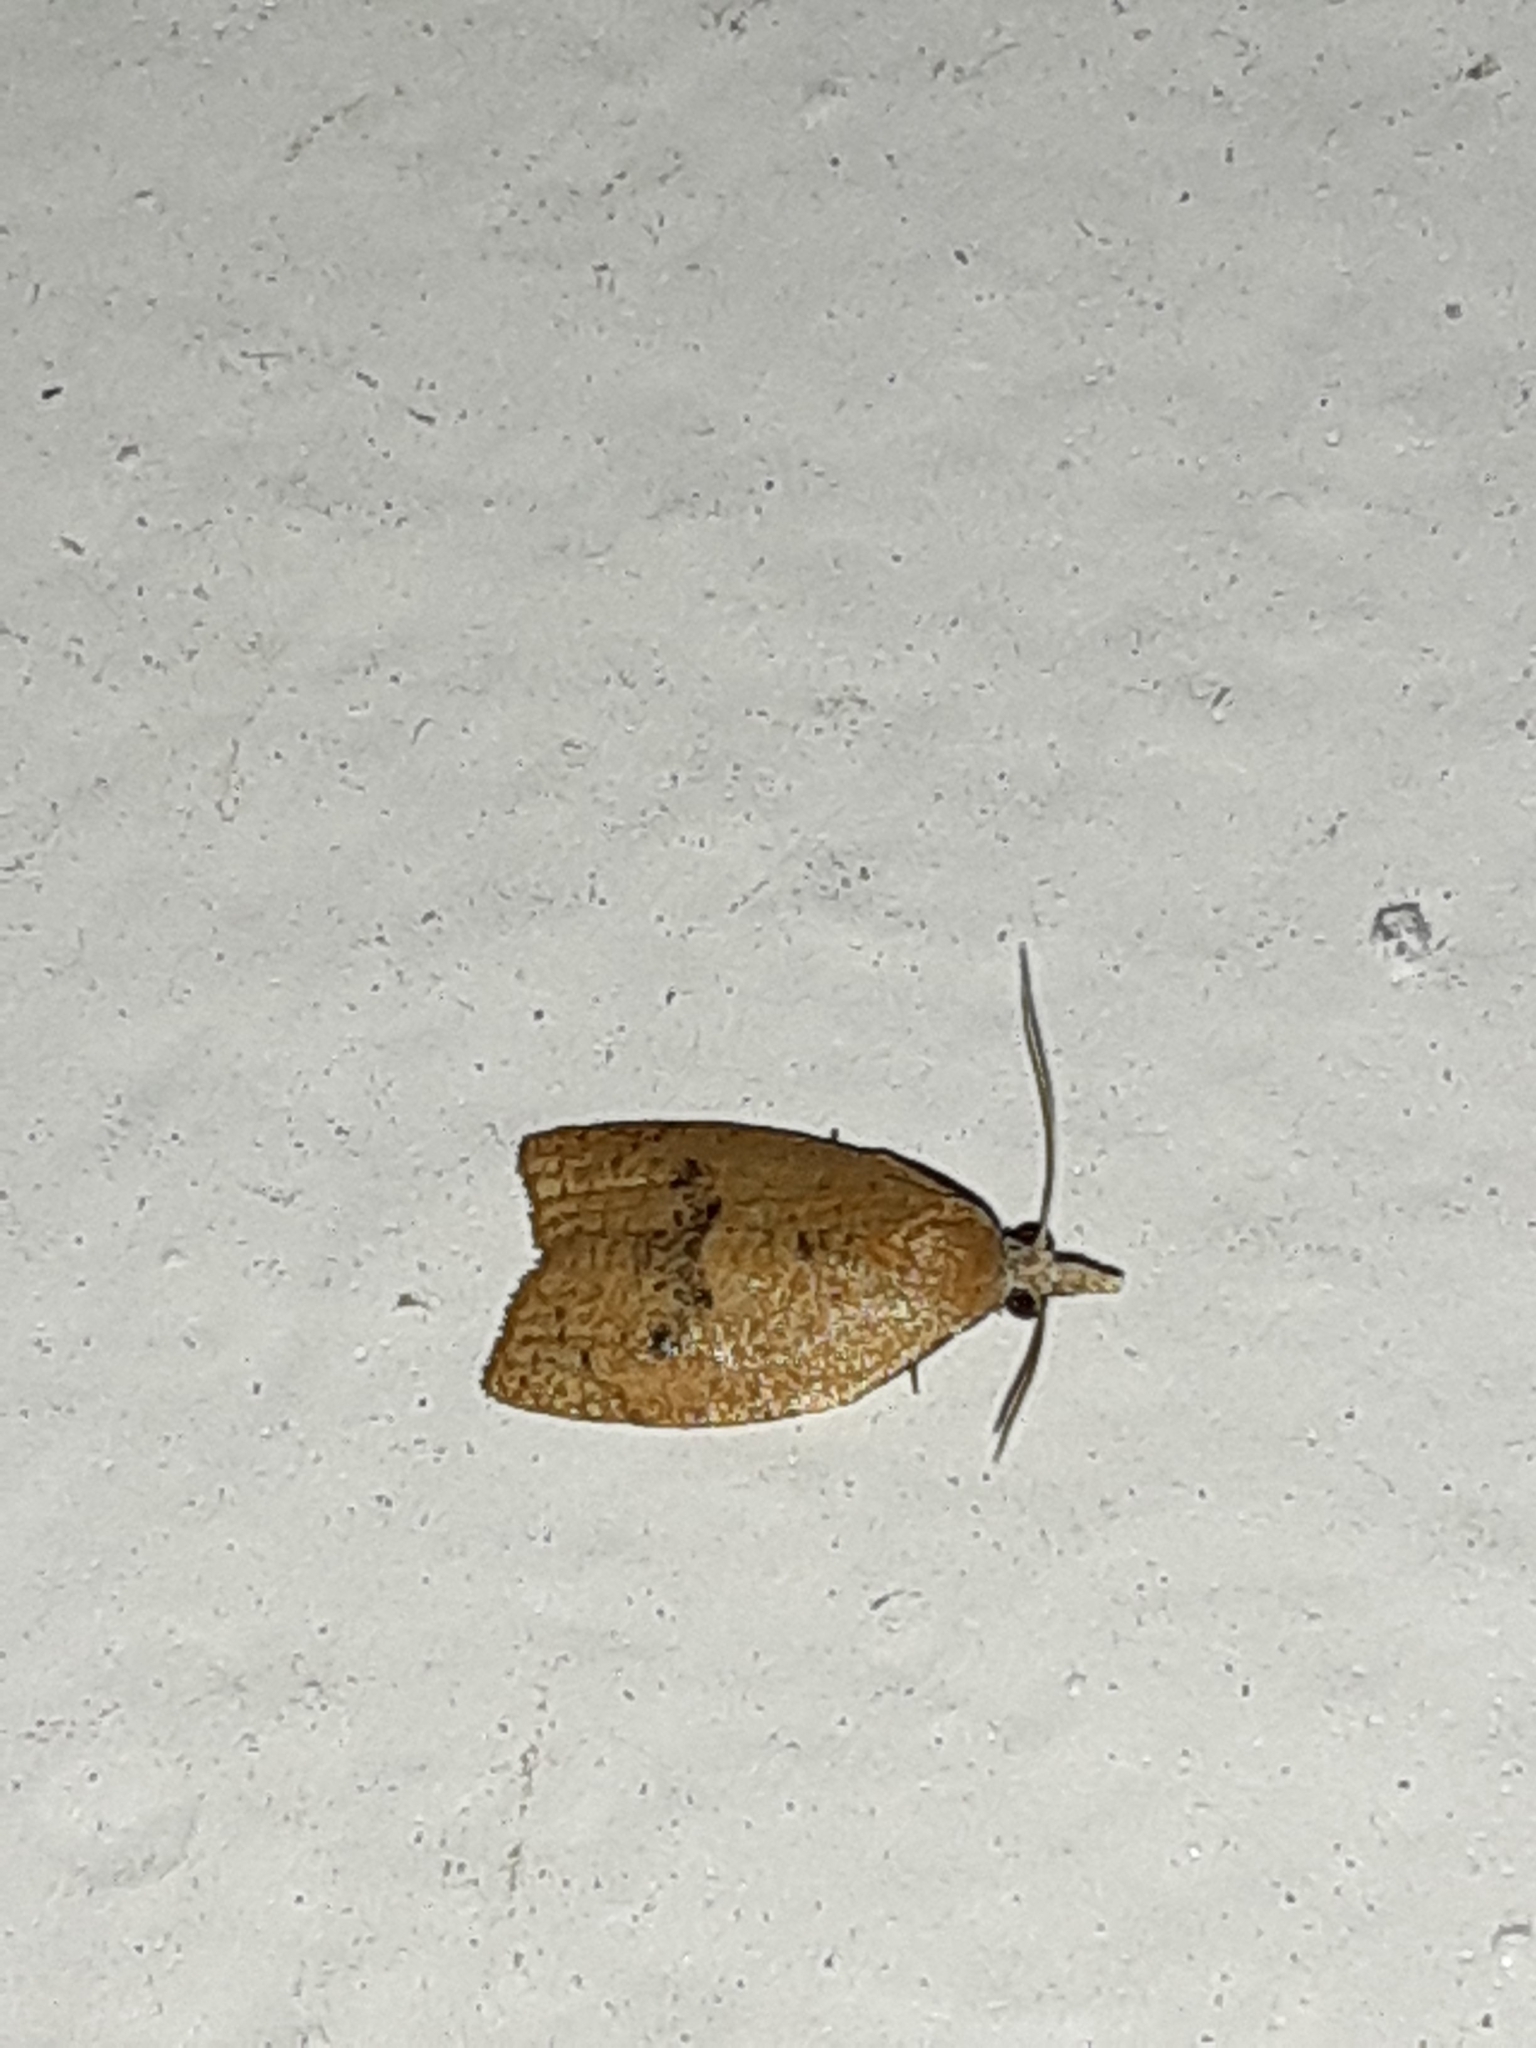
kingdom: Animalia
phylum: Arthropoda
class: Insecta
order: Lepidoptera
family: Tortricidae
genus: Sparganothoides
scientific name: Sparganothoides lentiginosana
